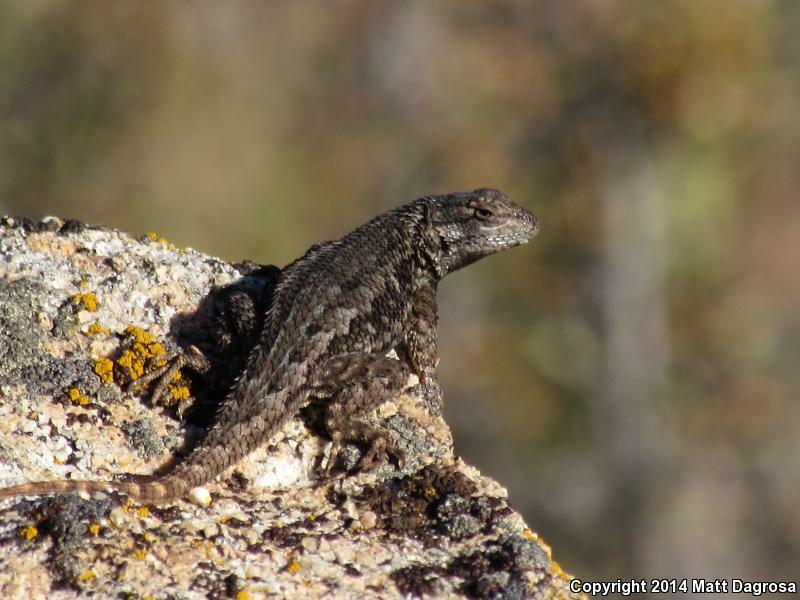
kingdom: Animalia
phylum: Chordata
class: Squamata
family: Phrynosomatidae
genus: Sceloporus
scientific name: Sceloporus occidentalis
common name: Western fence lizard
